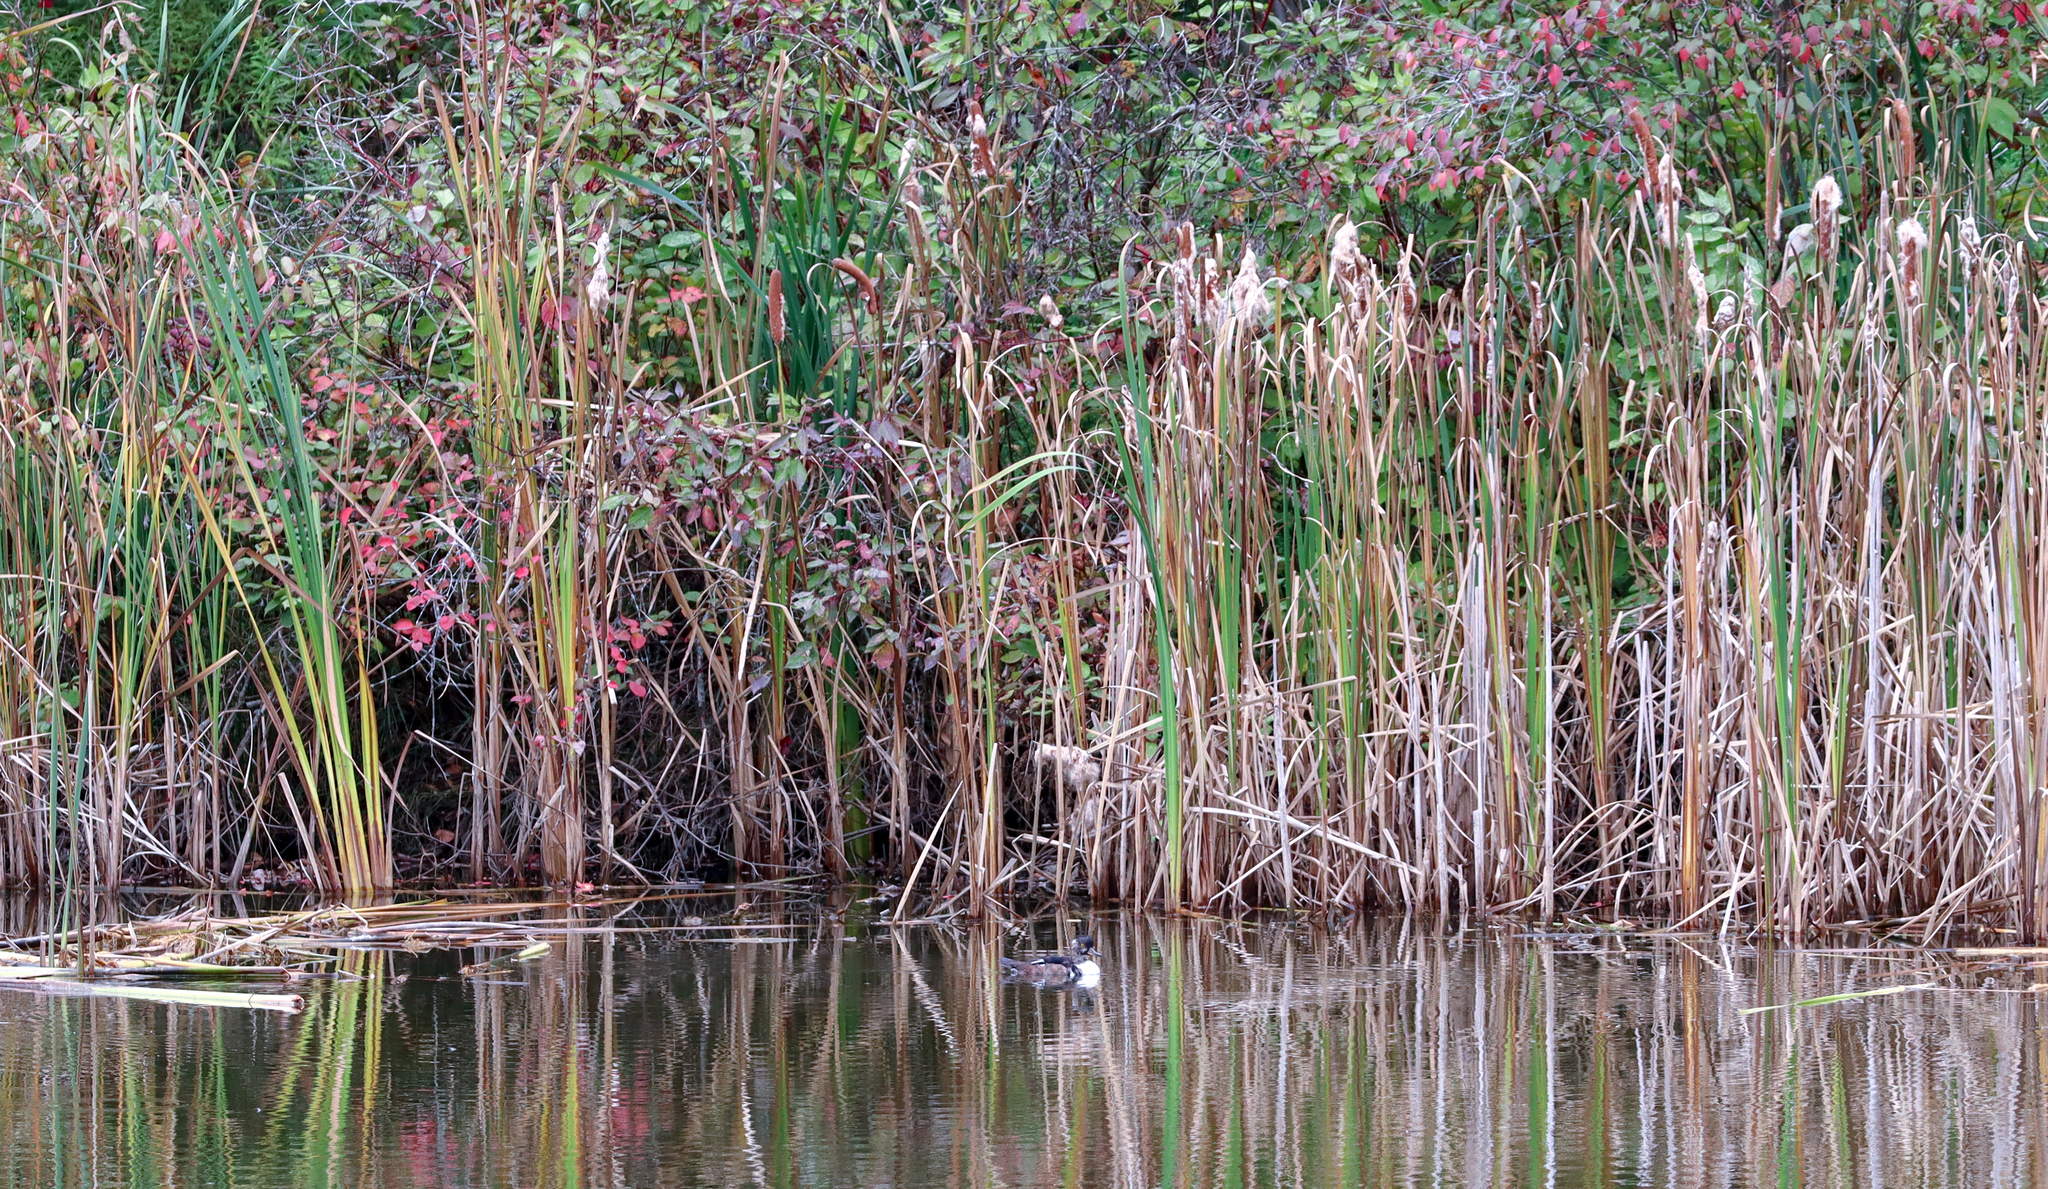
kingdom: Animalia
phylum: Chordata
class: Aves
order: Anseriformes
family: Anatidae
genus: Lophodytes
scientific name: Lophodytes cucullatus
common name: Hooded merganser
